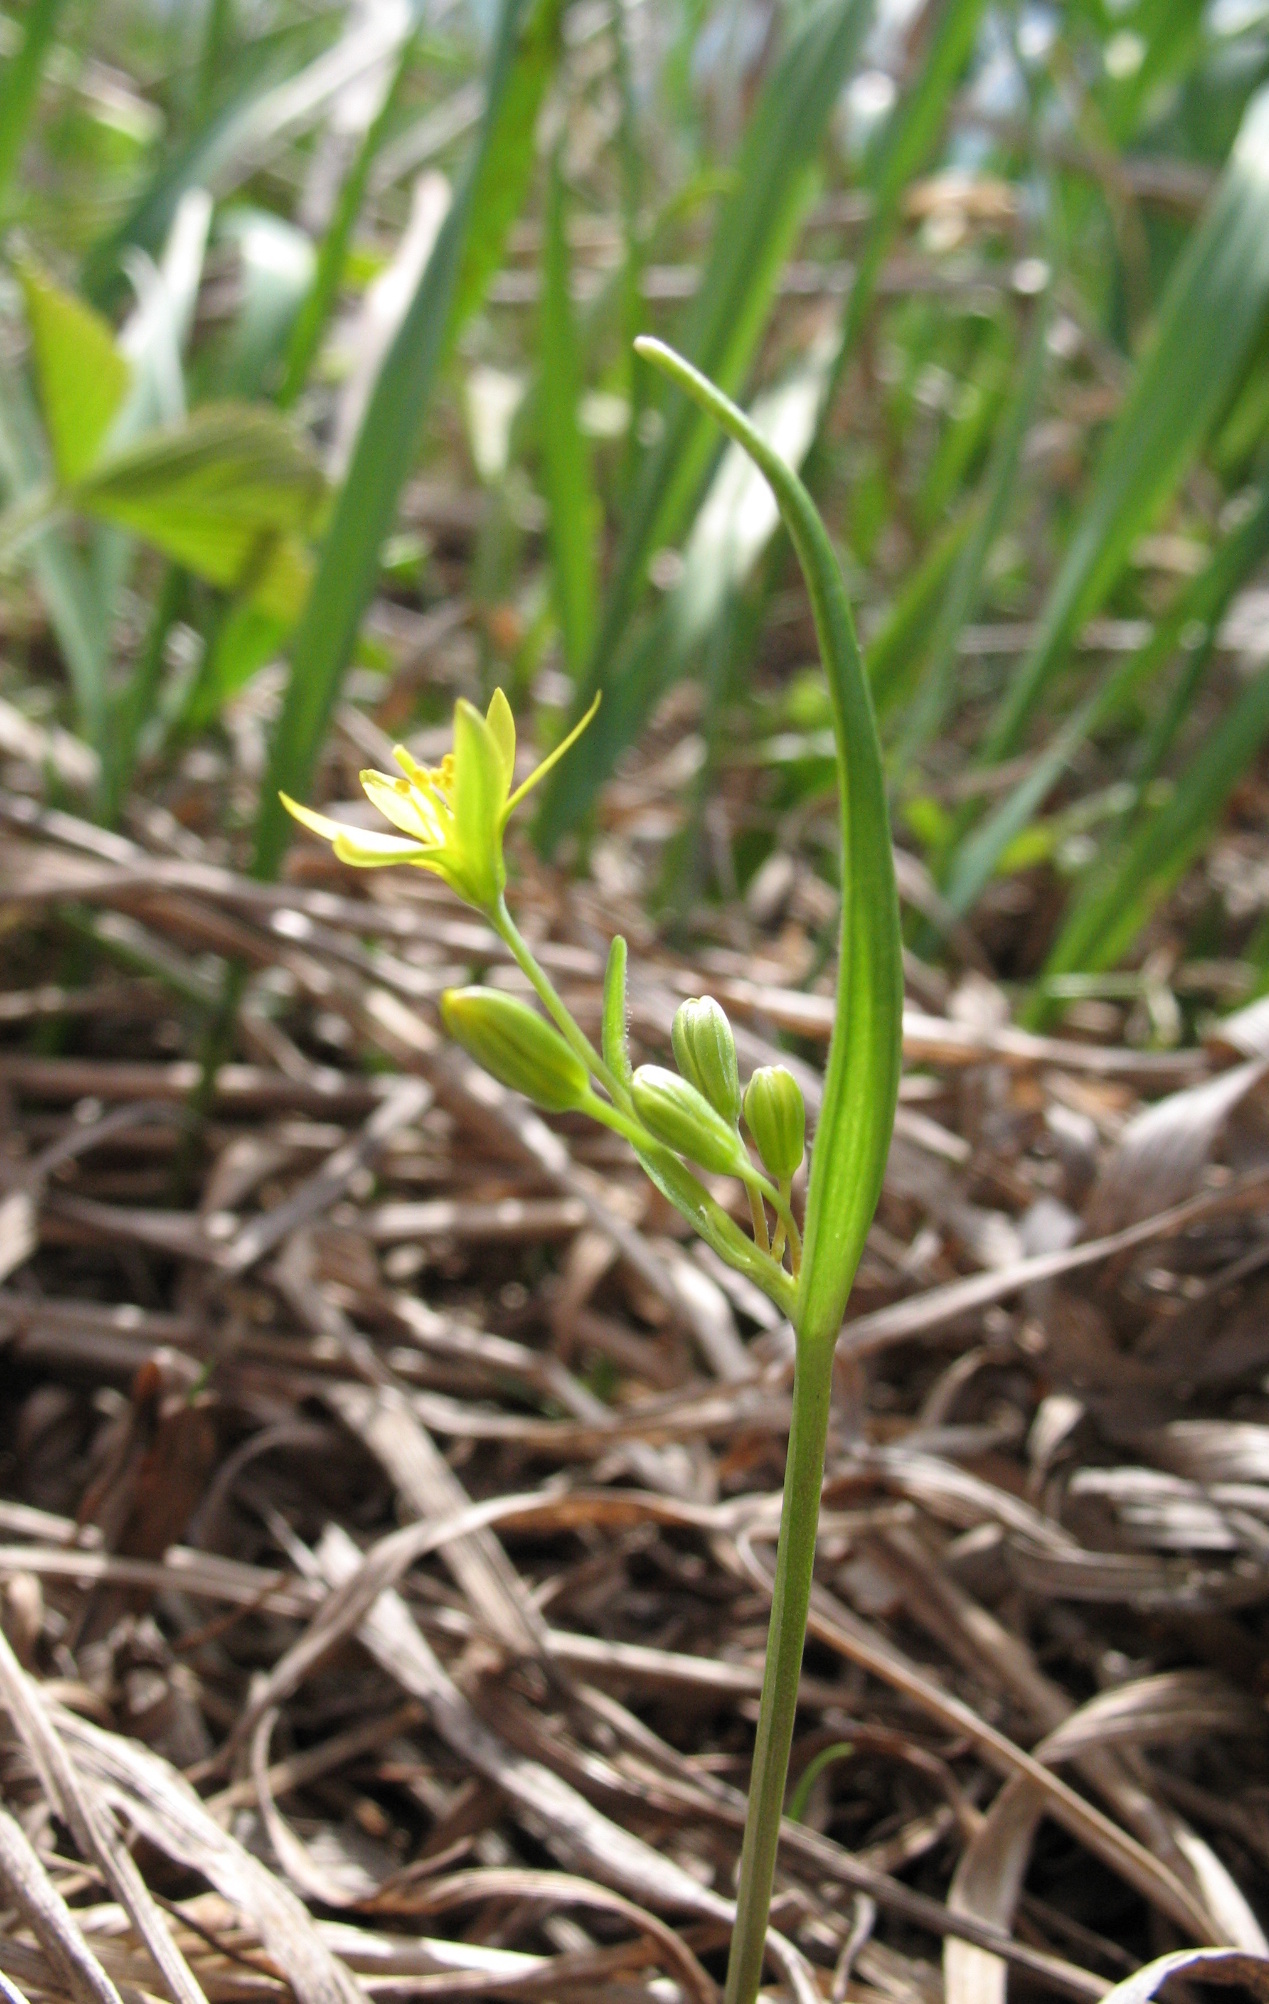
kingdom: Plantae
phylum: Tracheophyta
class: Liliopsida
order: Liliales
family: Liliaceae
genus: Gagea
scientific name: Gagea fragifera
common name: Lily
